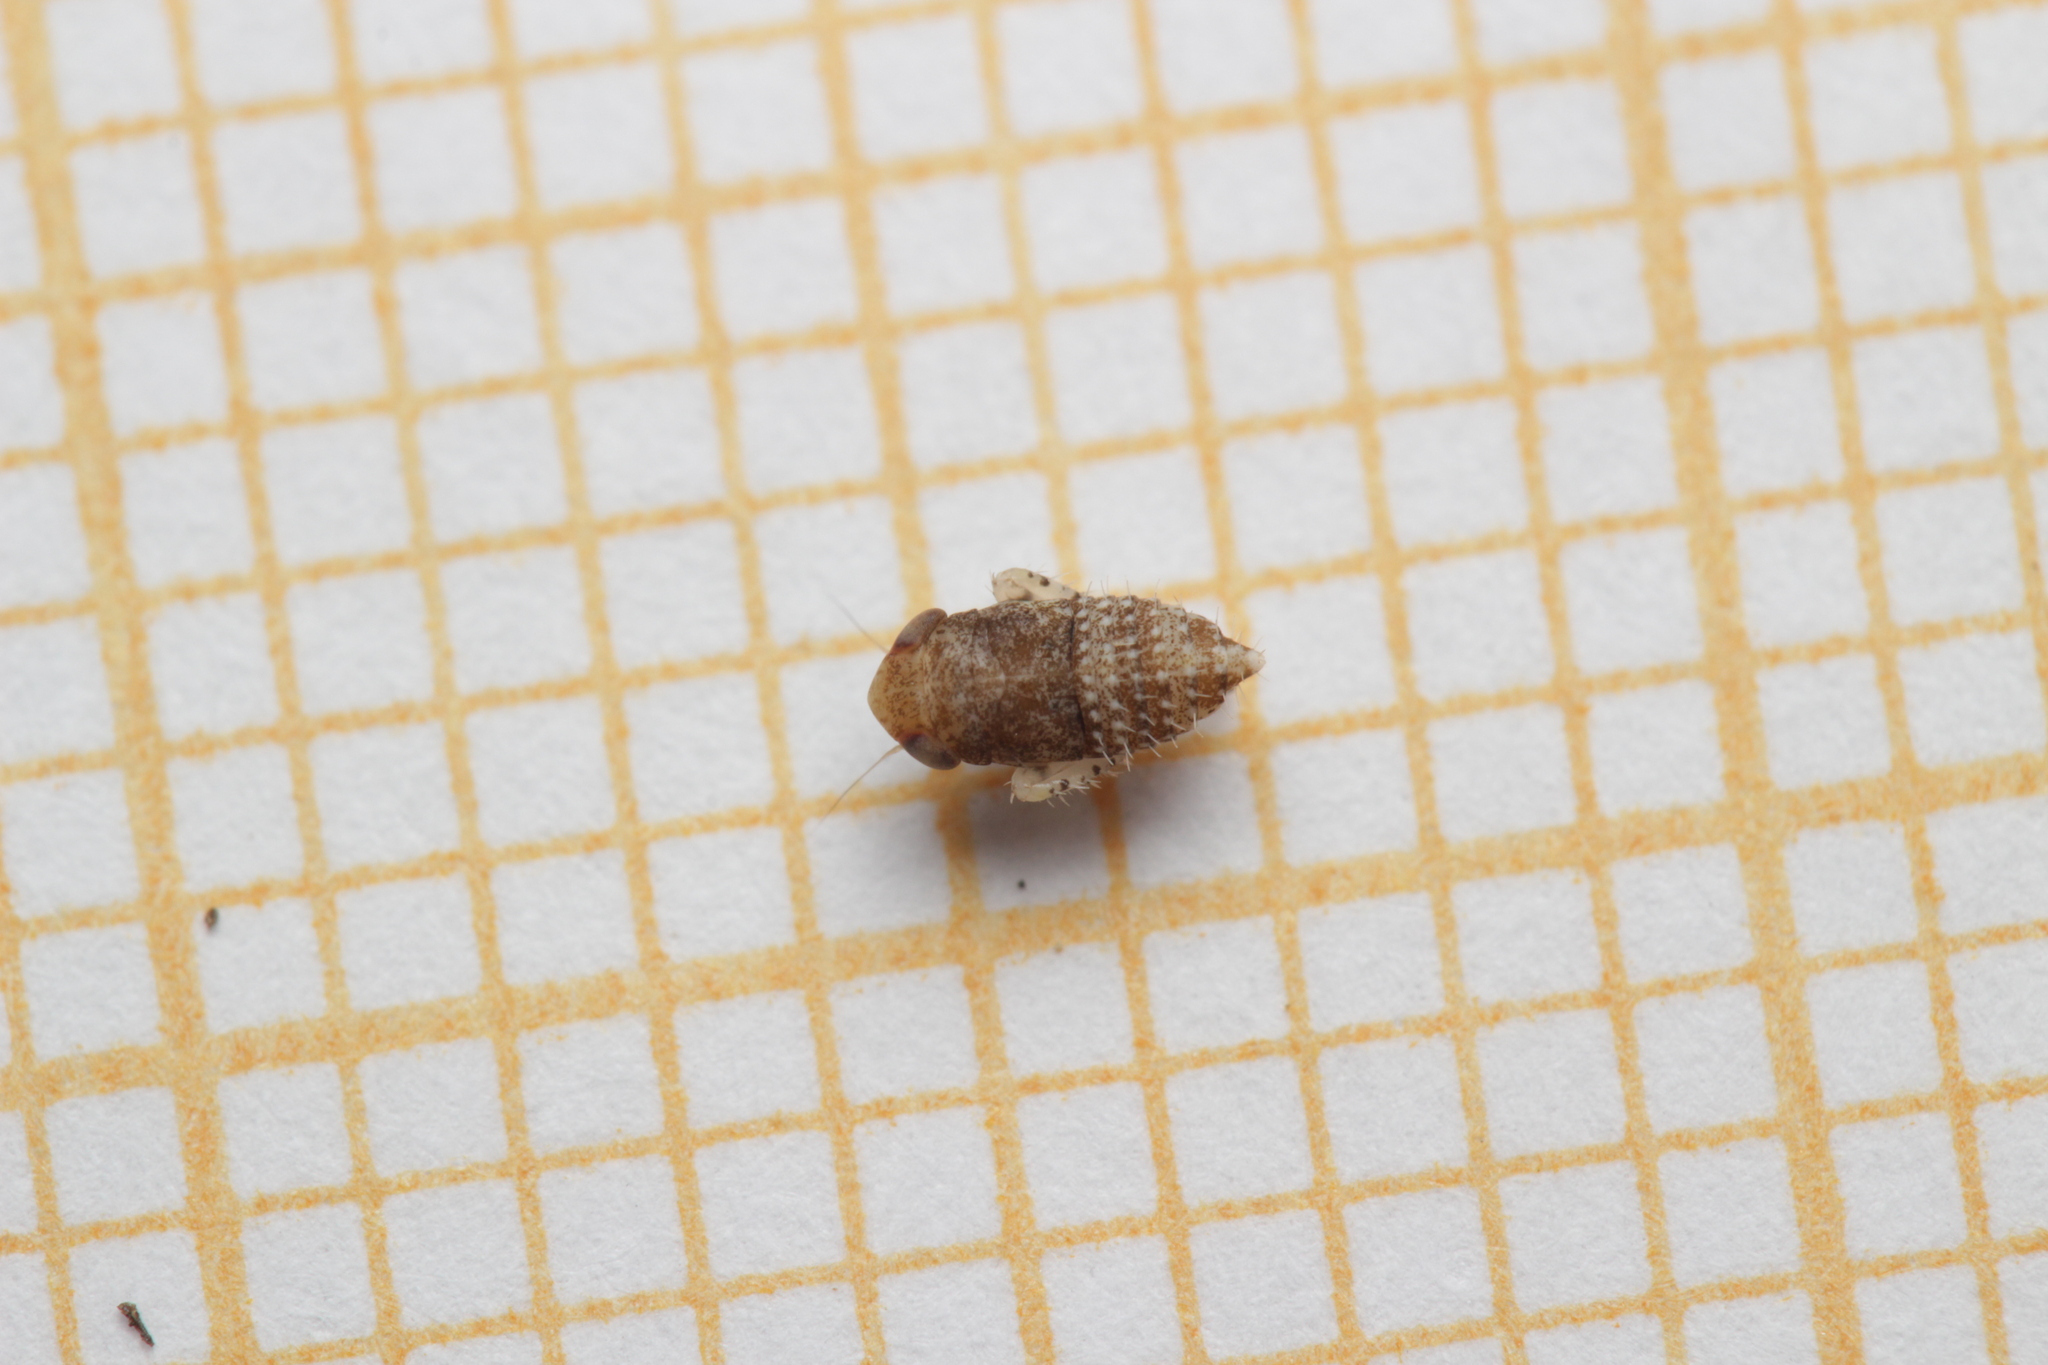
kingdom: Animalia
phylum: Arthropoda
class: Insecta
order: Hemiptera
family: Cicadellidae
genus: Allygidius
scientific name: Allygidius atomarius
